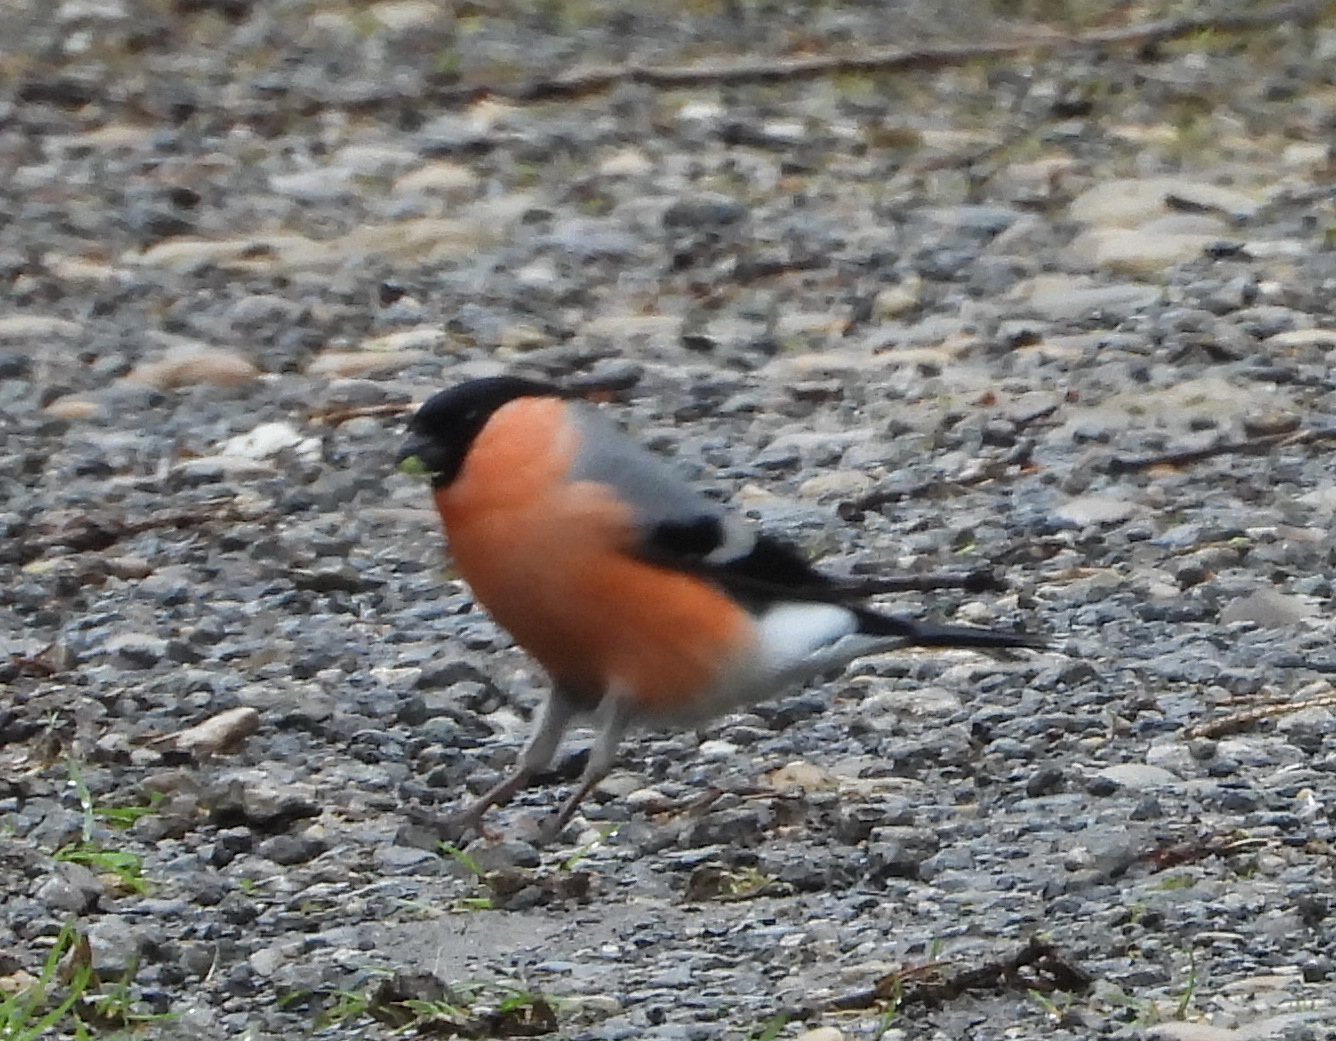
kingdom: Animalia
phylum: Chordata
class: Aves
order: Passeriformes
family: Fringillidae
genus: Pyrrhula
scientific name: Pyrrhula pyrrhula
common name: Eurasian bullfinch
